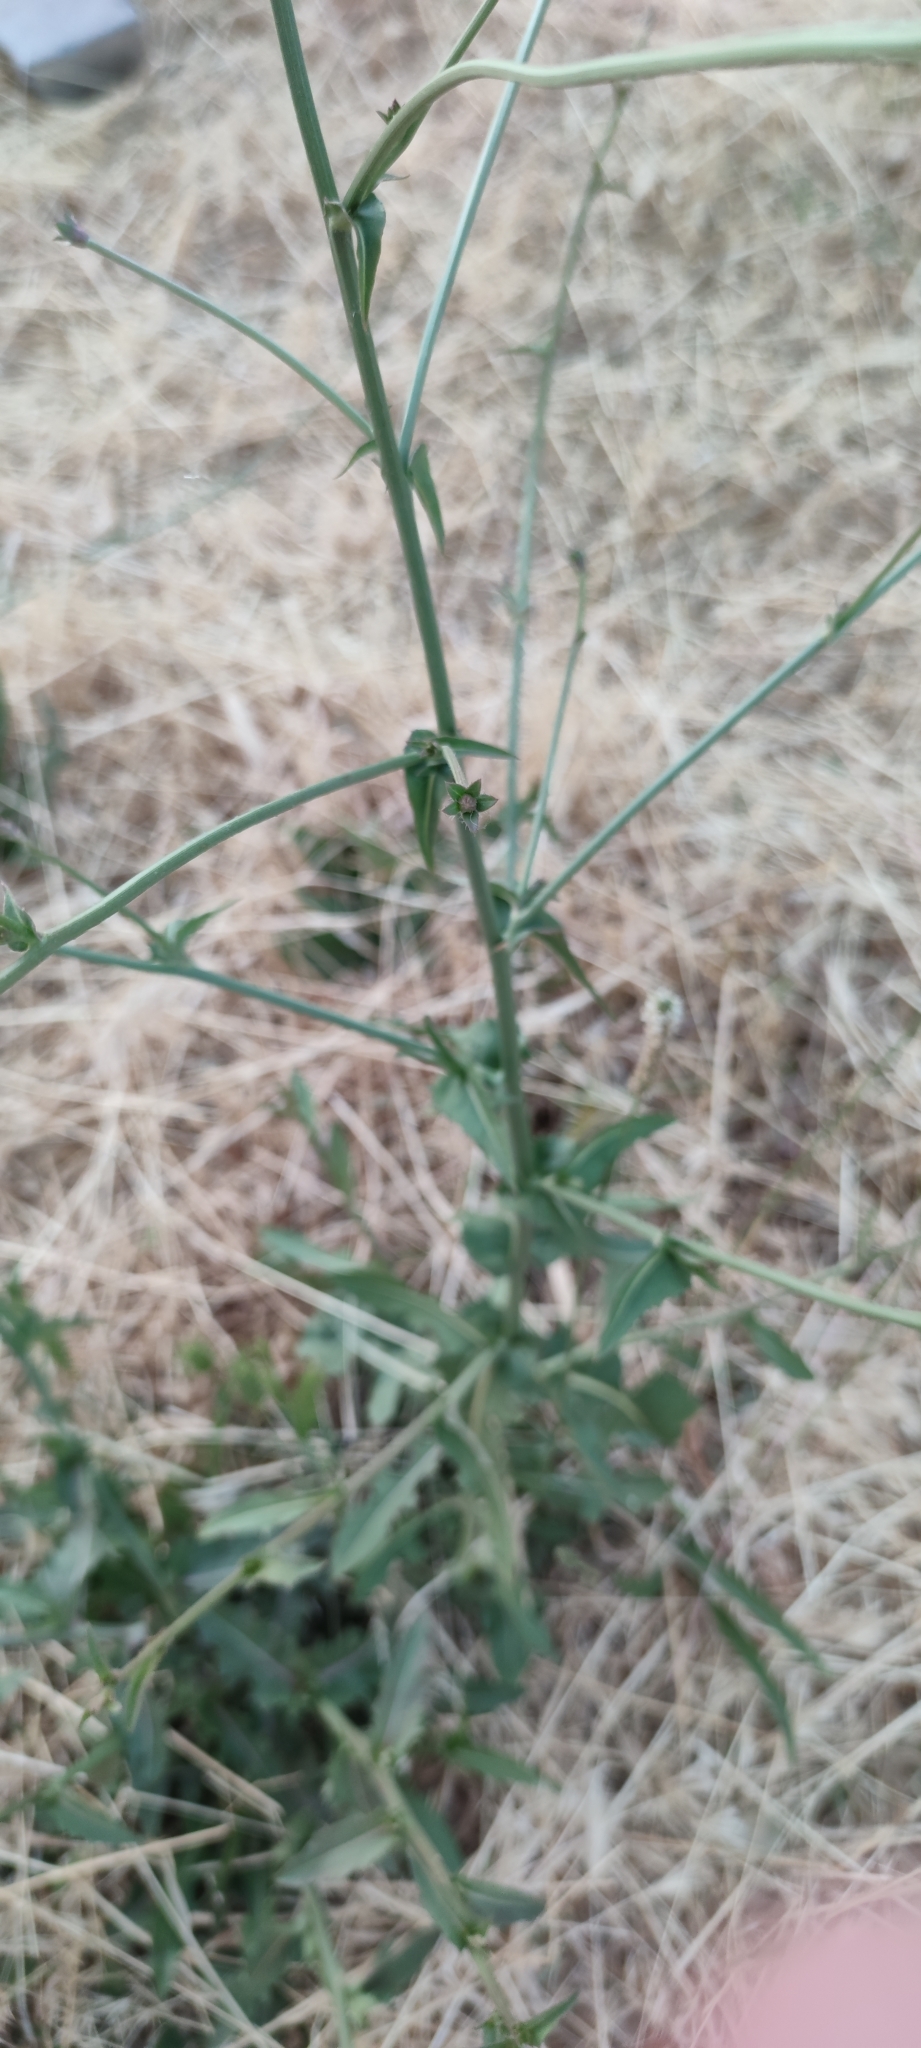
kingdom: Plantae
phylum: Tracheophyta
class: Magnoliopsida
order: Asterales
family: Asteraceae
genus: Cichorium
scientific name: Cichorium intybus
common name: Chicory
